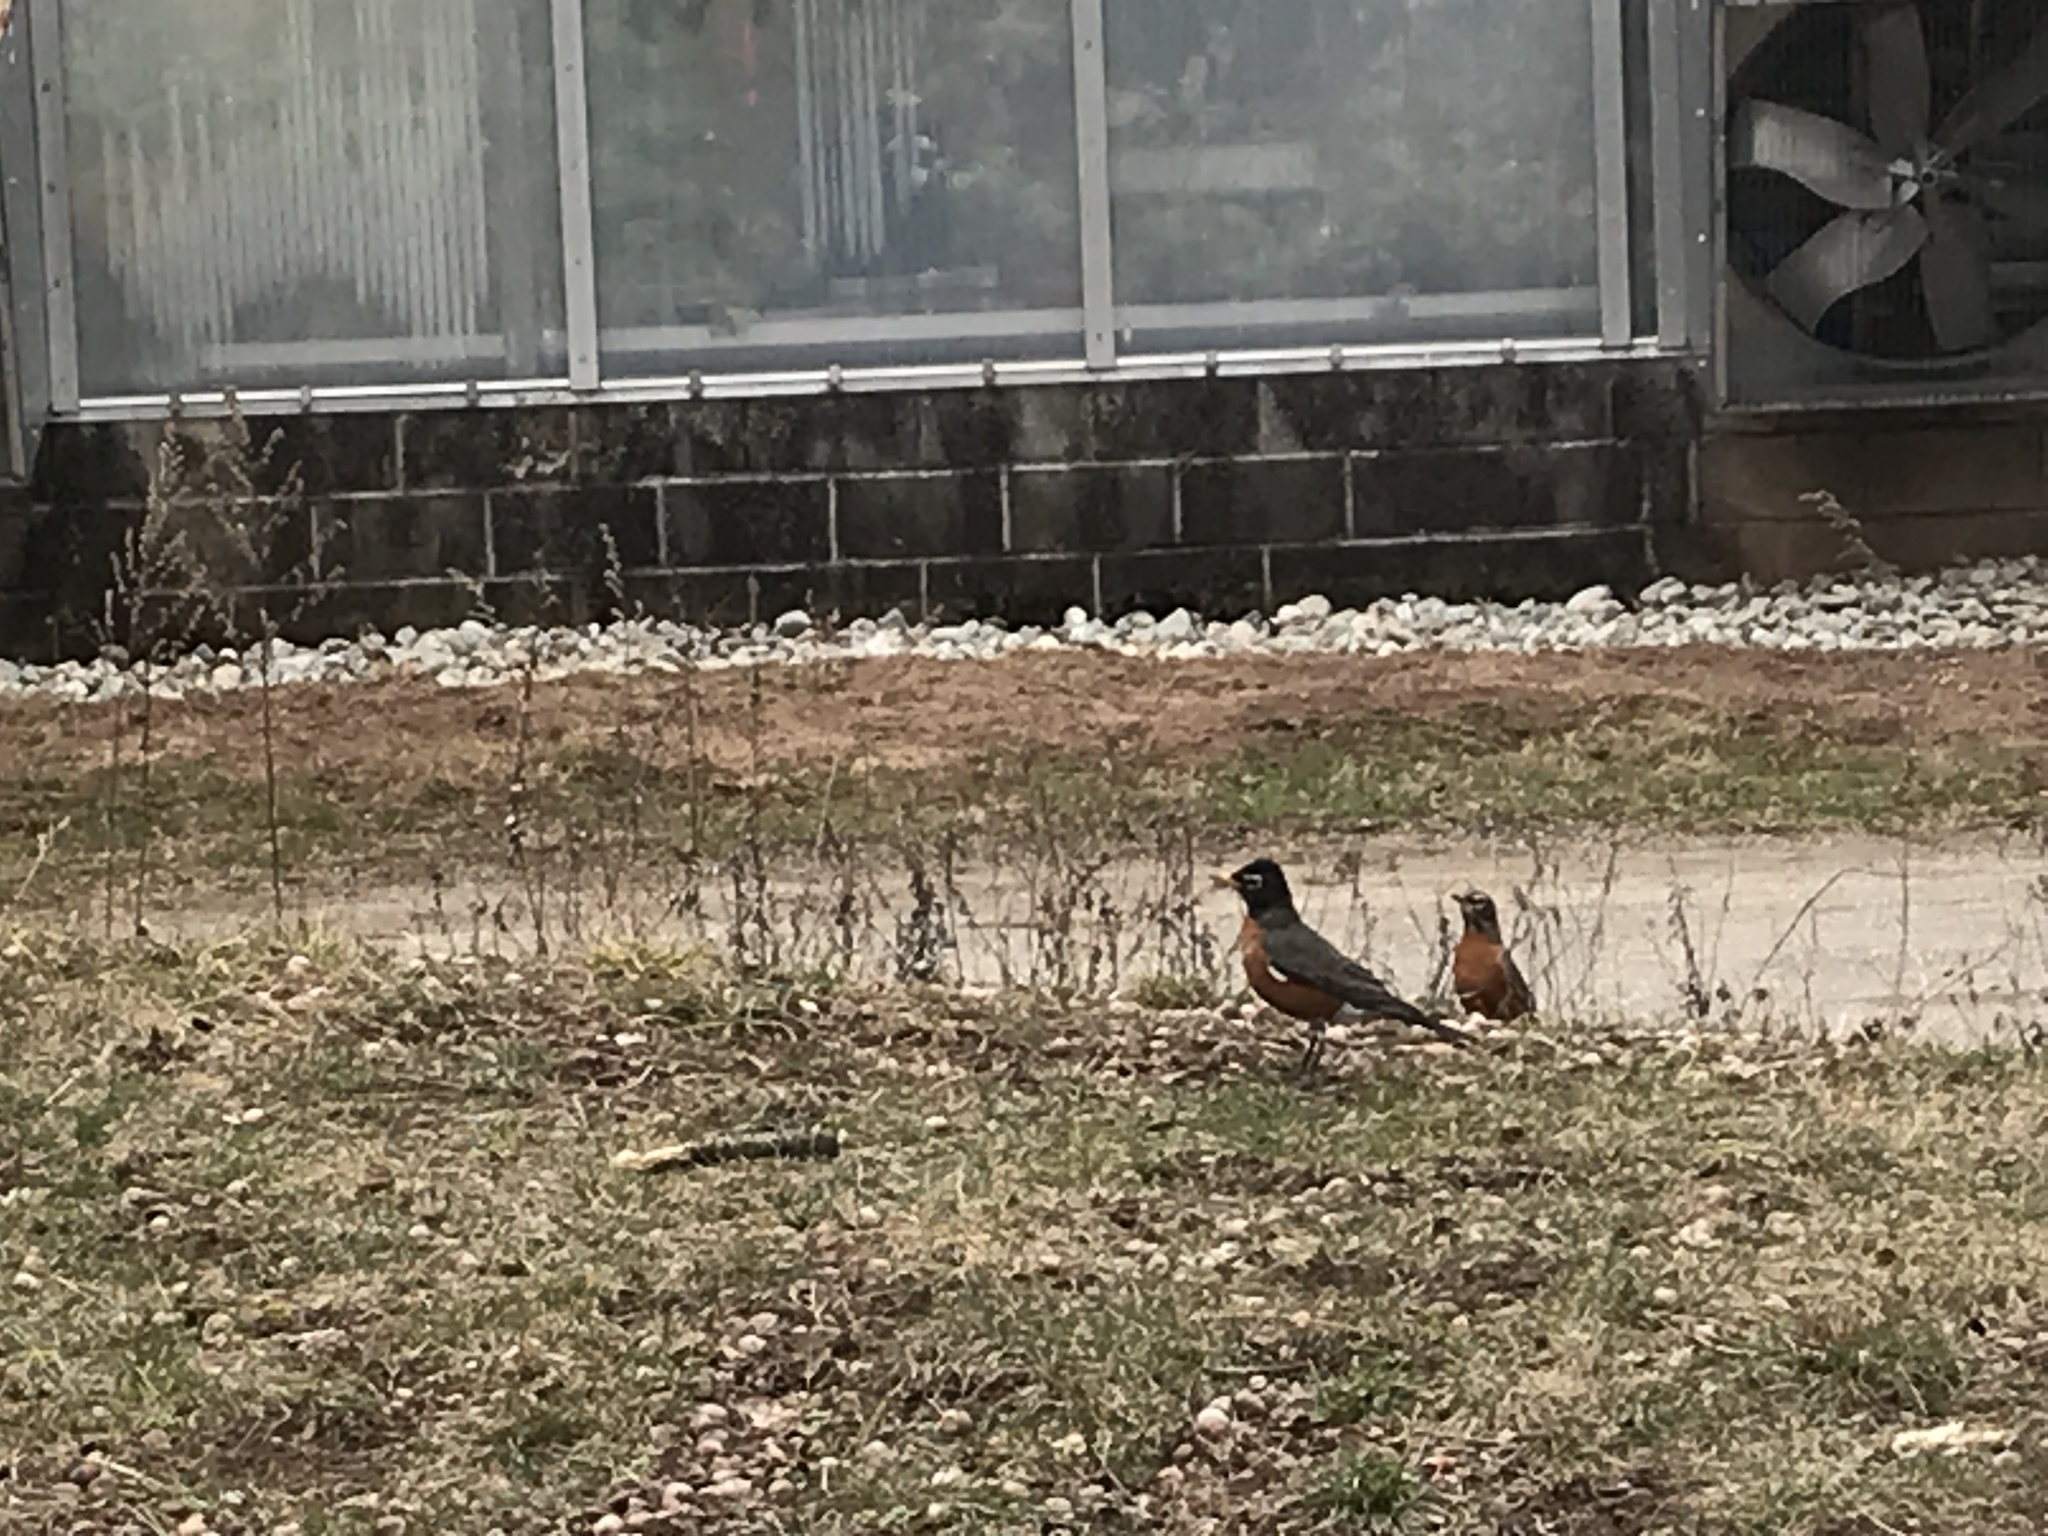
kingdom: Animalia
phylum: Chordata
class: Aves
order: Passeriformes
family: Turdidae
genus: Turdus
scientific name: Turdus migratorius
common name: American robin
